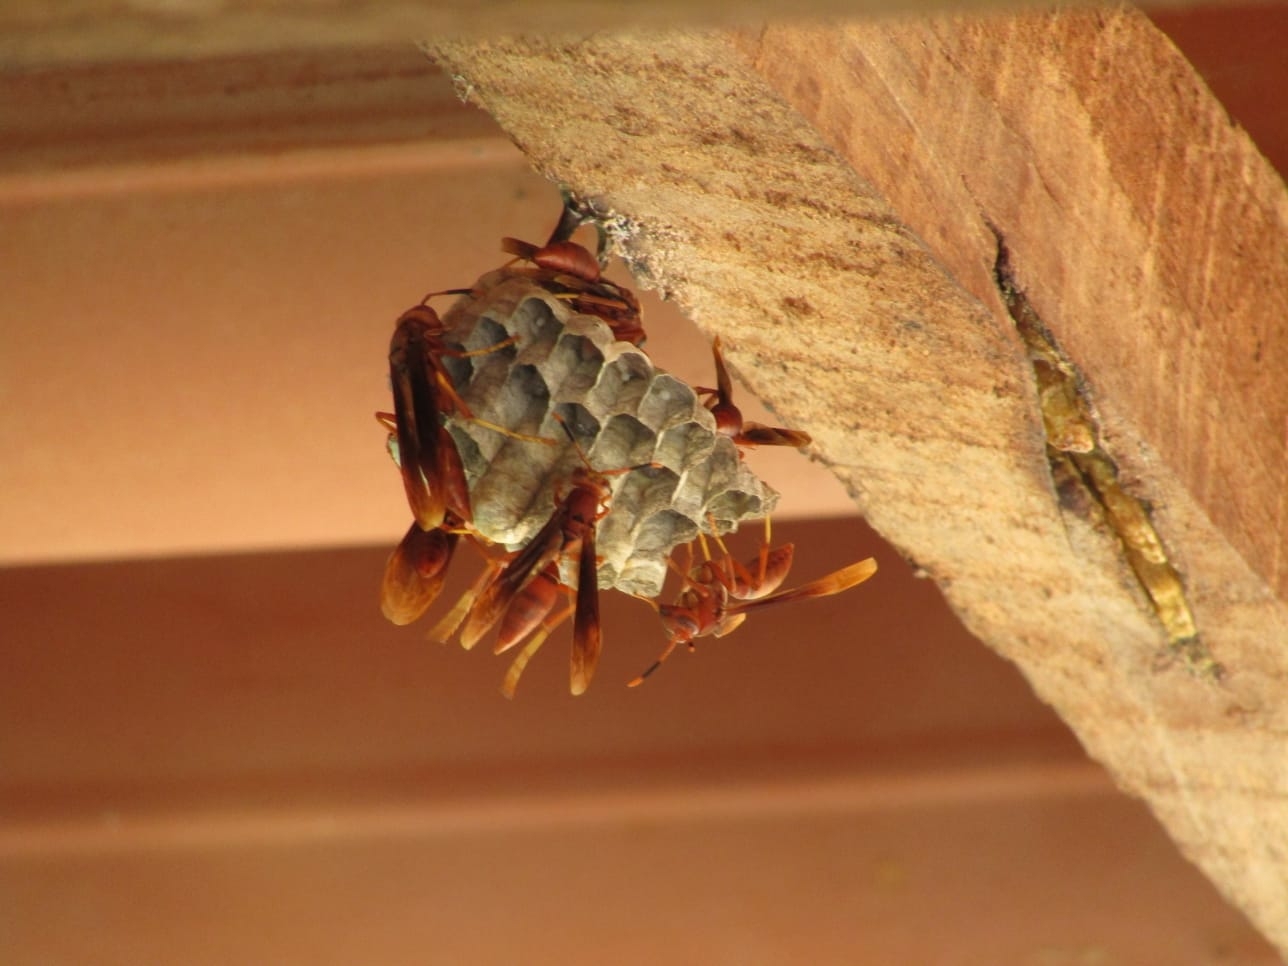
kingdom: Animalia
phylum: Arthropoda
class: Insecta
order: Hymenoptera
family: Eumenidae
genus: Polistes
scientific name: Polistes canadensis
